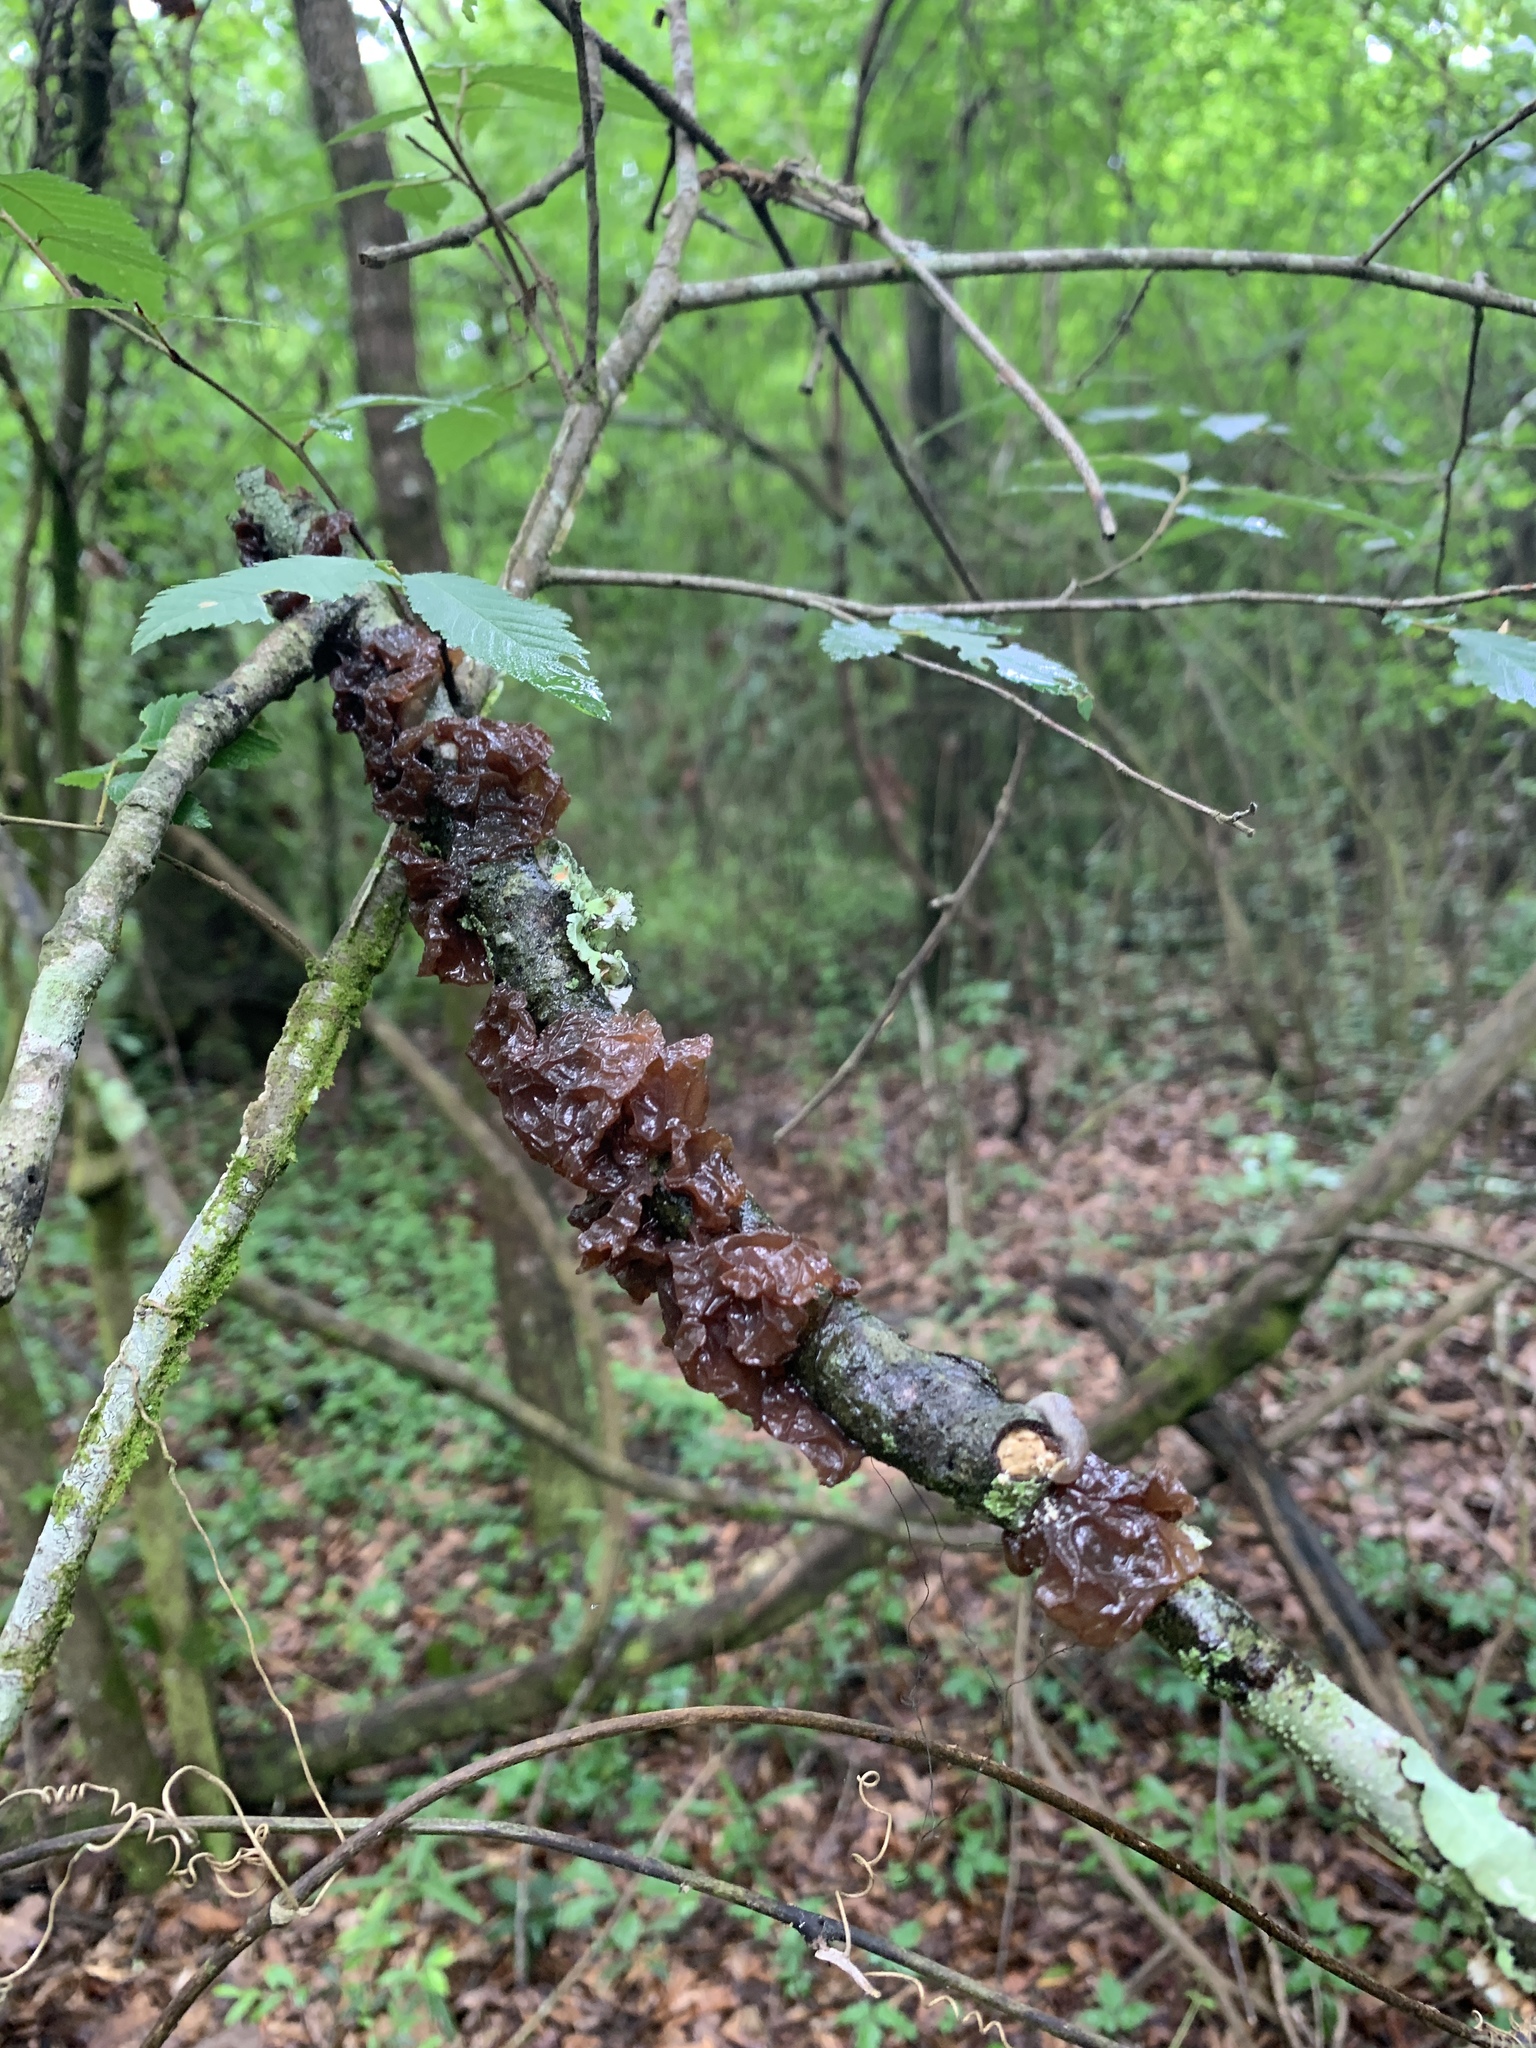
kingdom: Fungi
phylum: Basidiomycota
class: Agaricomycetes
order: Auriculariales
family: Auriculariaceae
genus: Exidia
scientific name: Exidia
